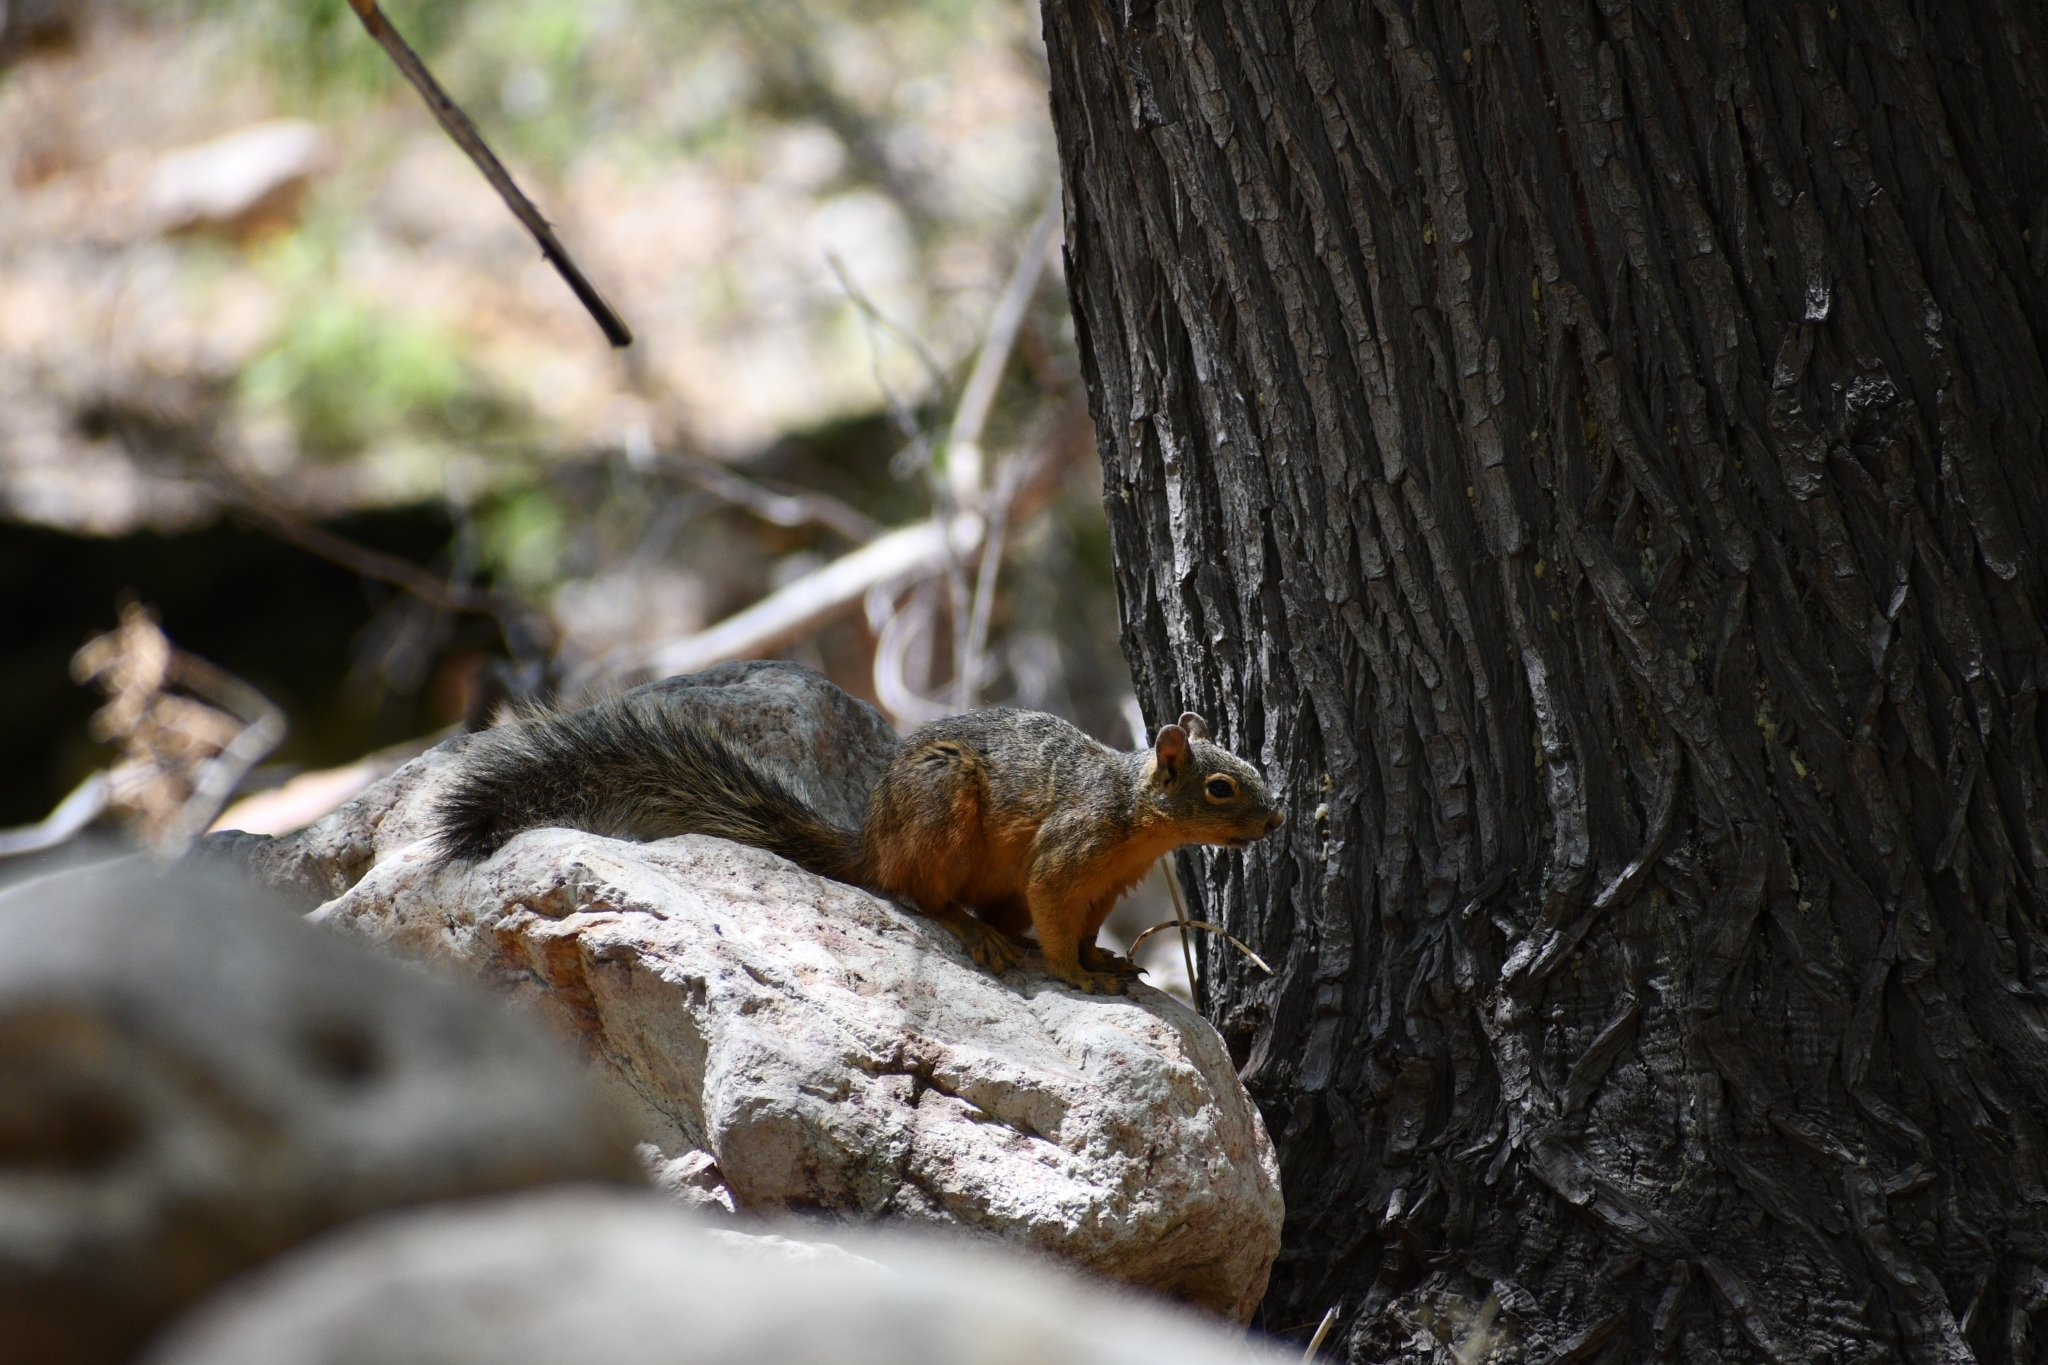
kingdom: Animalia
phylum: Chordata
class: Mammalia
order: Rodentia
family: Sciuridae
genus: Sciurus
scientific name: Sciurus nayaritensis
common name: Mexican fox squirrel
